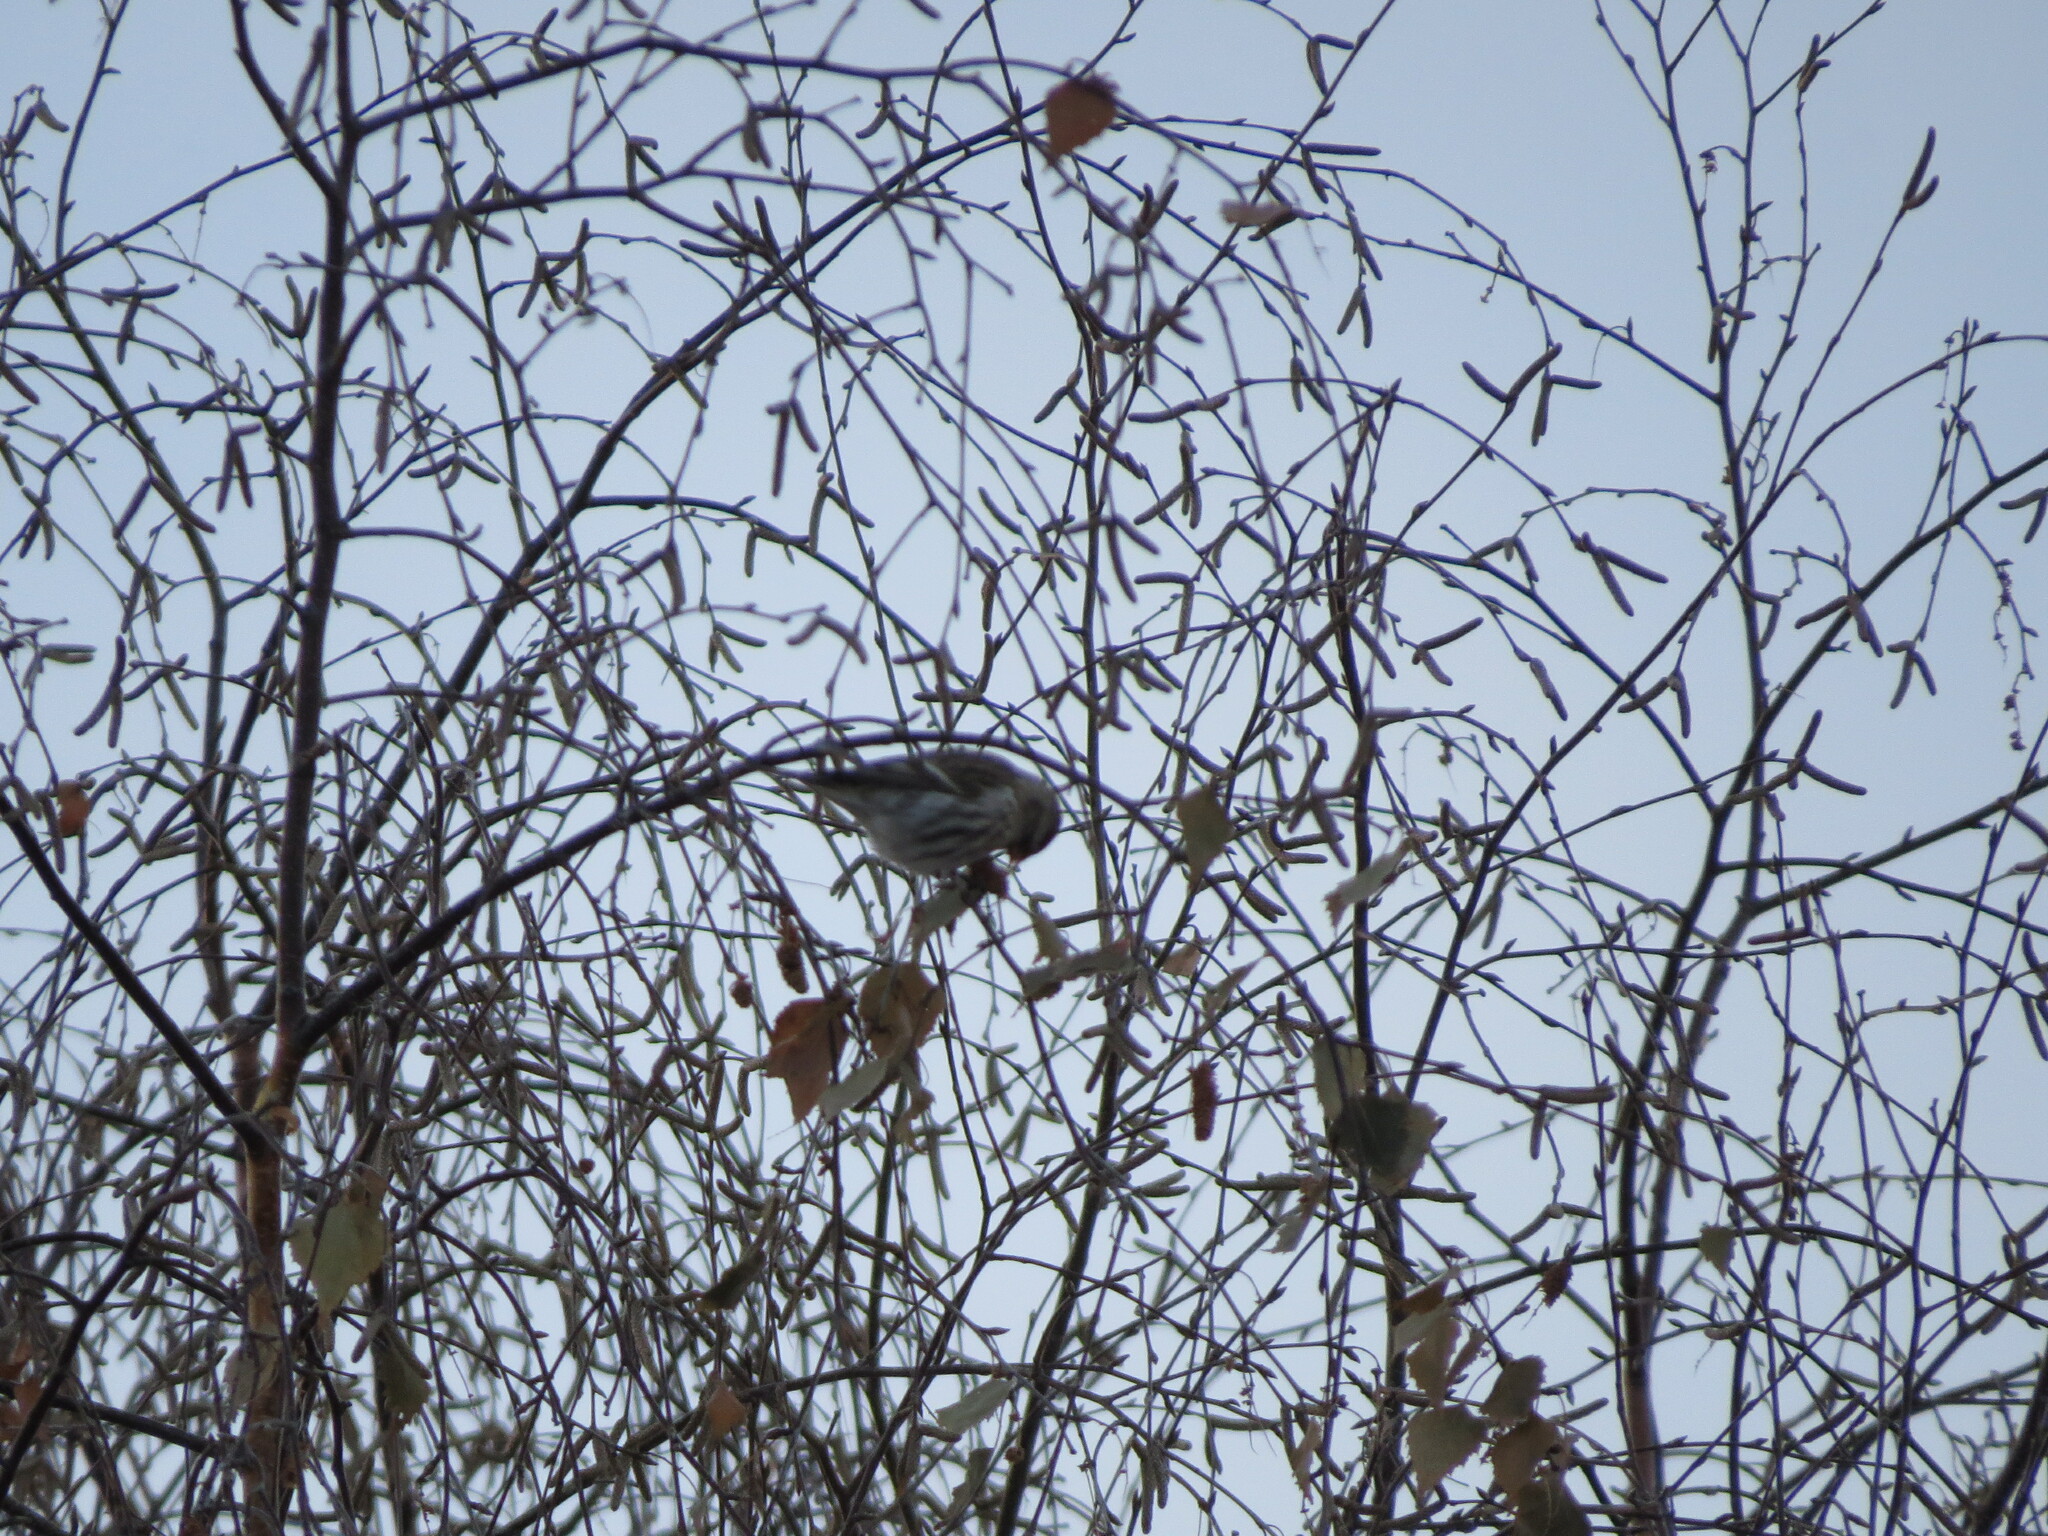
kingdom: Animalia
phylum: Chordata
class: Aves
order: Passeriformes
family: Fringillidae
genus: Acanthis
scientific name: Acanthis flammea
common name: Common redpoll
